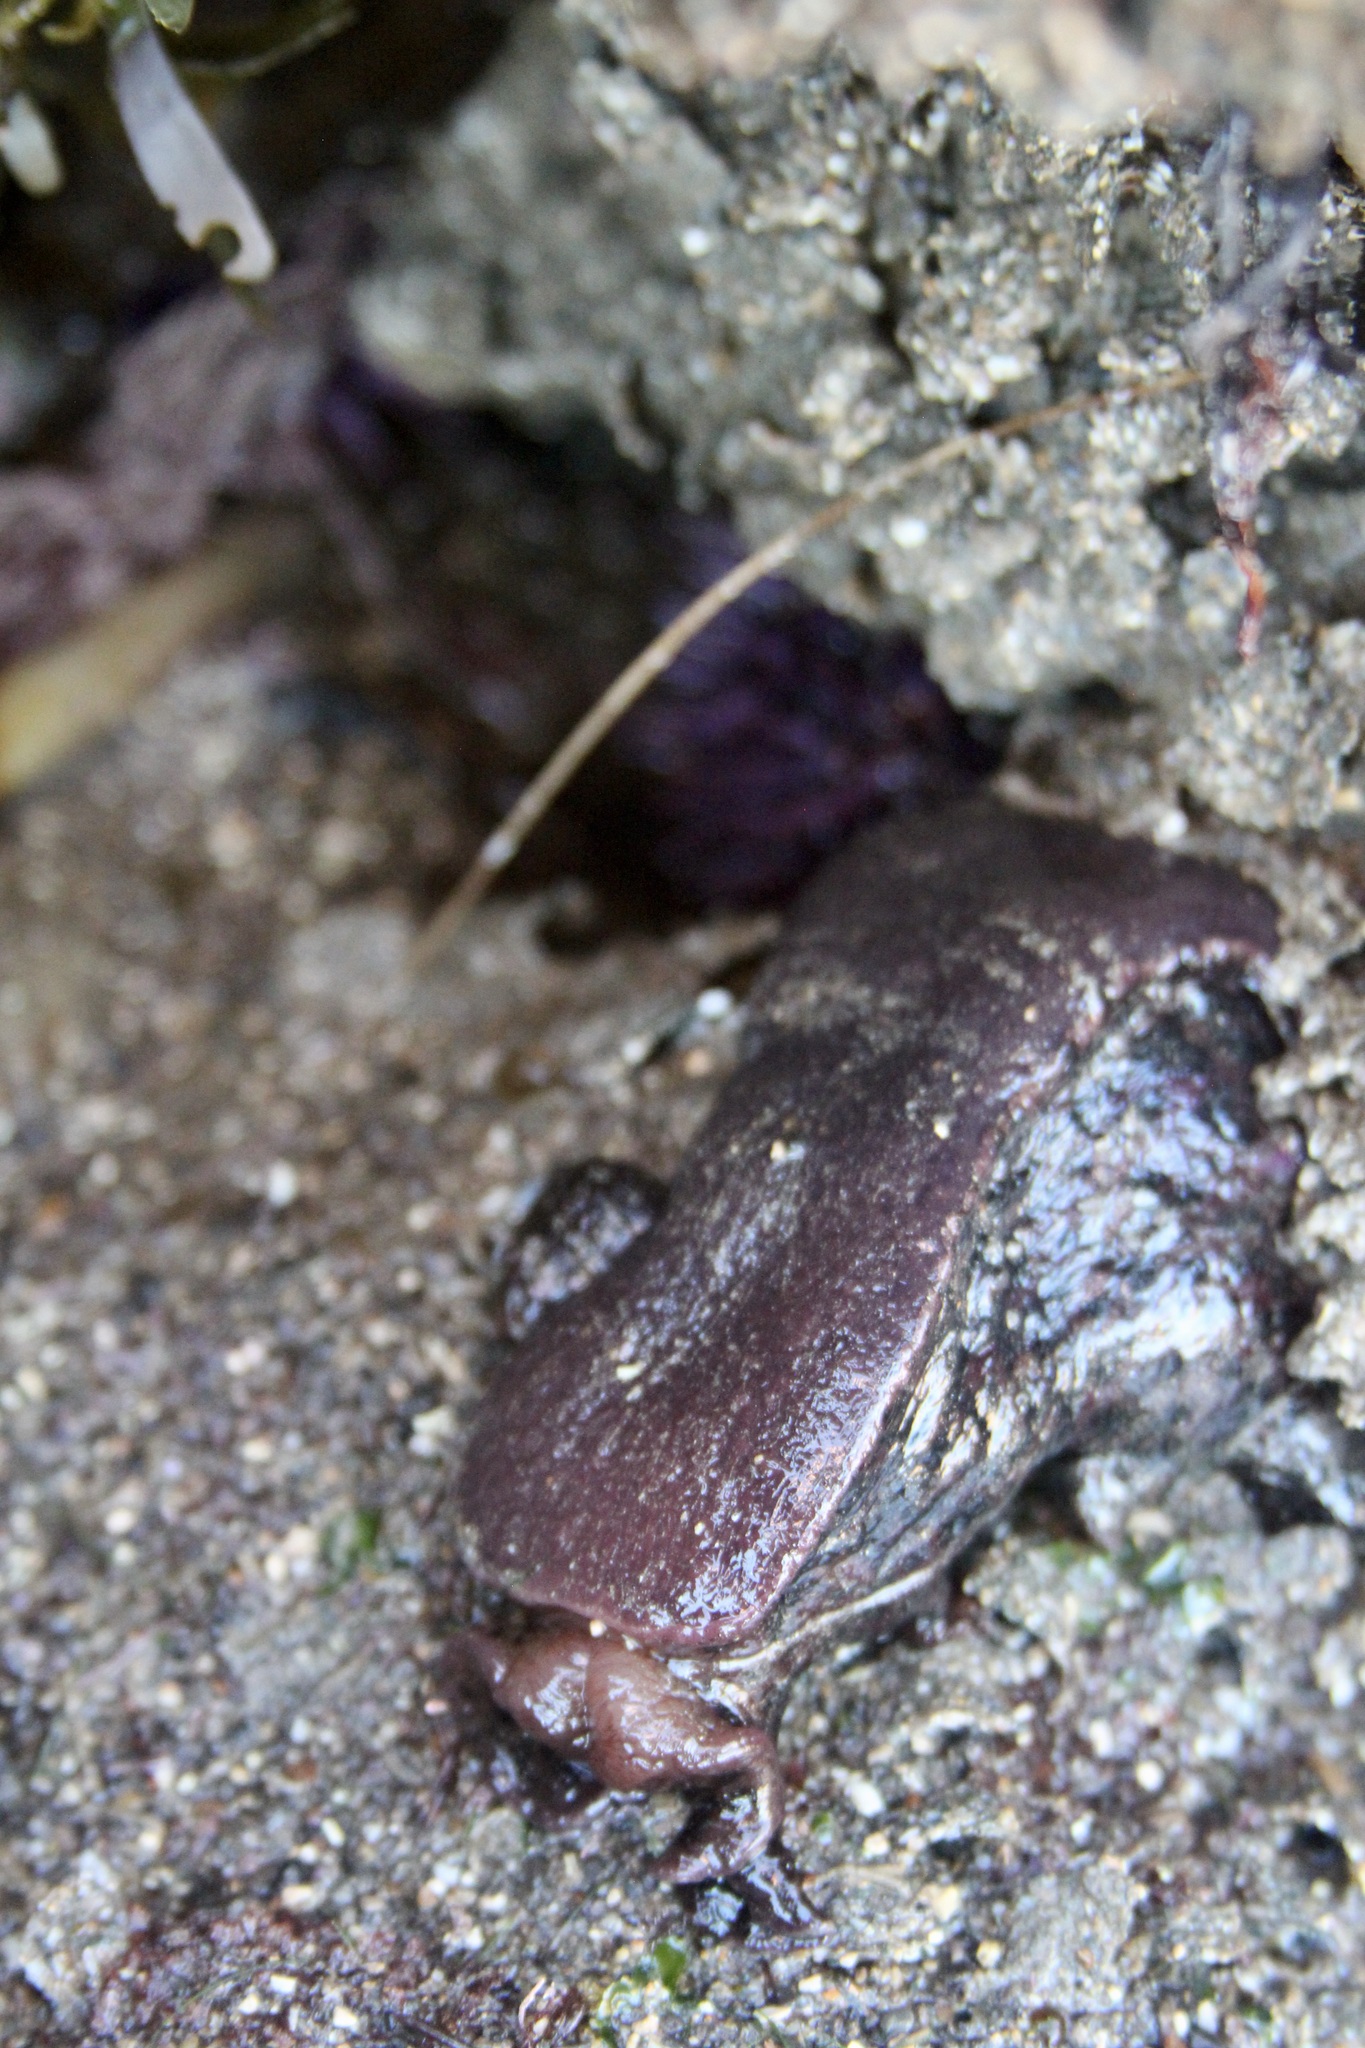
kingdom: Animalia
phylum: Mollusca
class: Gastropoda
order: Aplysiida
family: Aplysiidae
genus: Aplysia
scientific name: Aplysia californica
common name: California seahare
